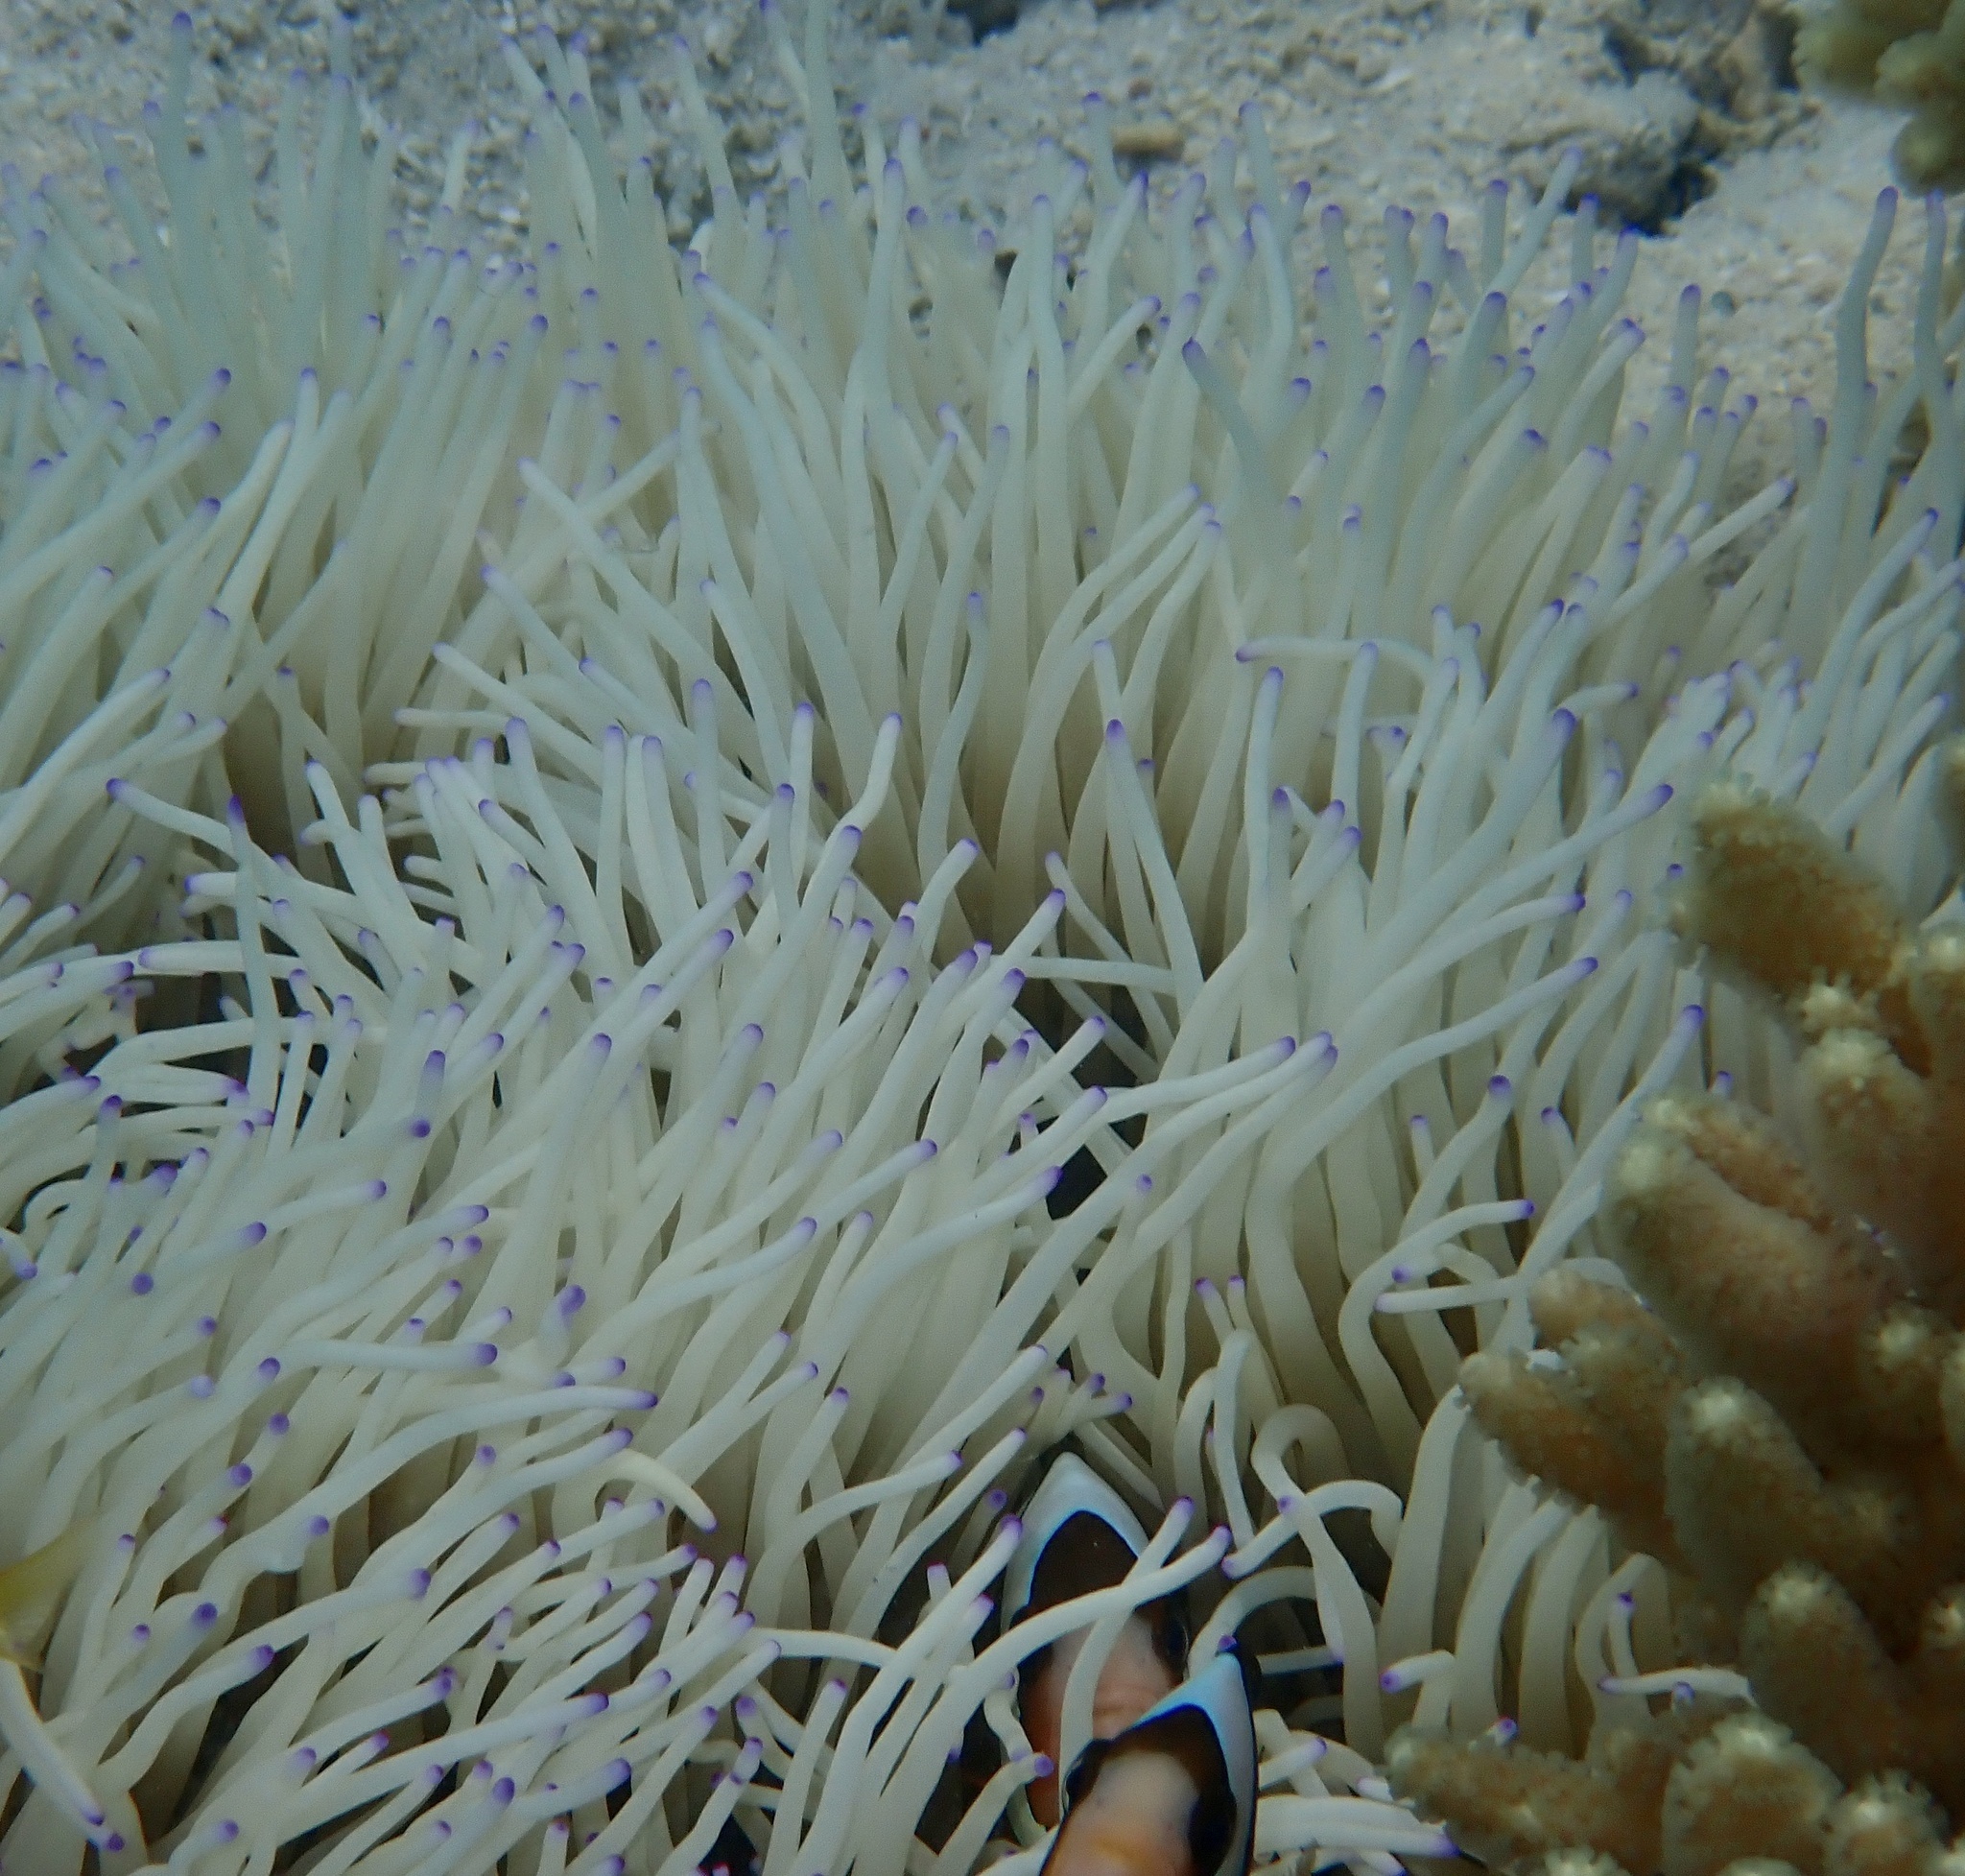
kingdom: Animalia
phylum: Cnidaria
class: Anthozoa
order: Actiniaria
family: Stichodactylidae
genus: Radianthus
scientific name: Radianthus crispa
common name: Leather anemone
